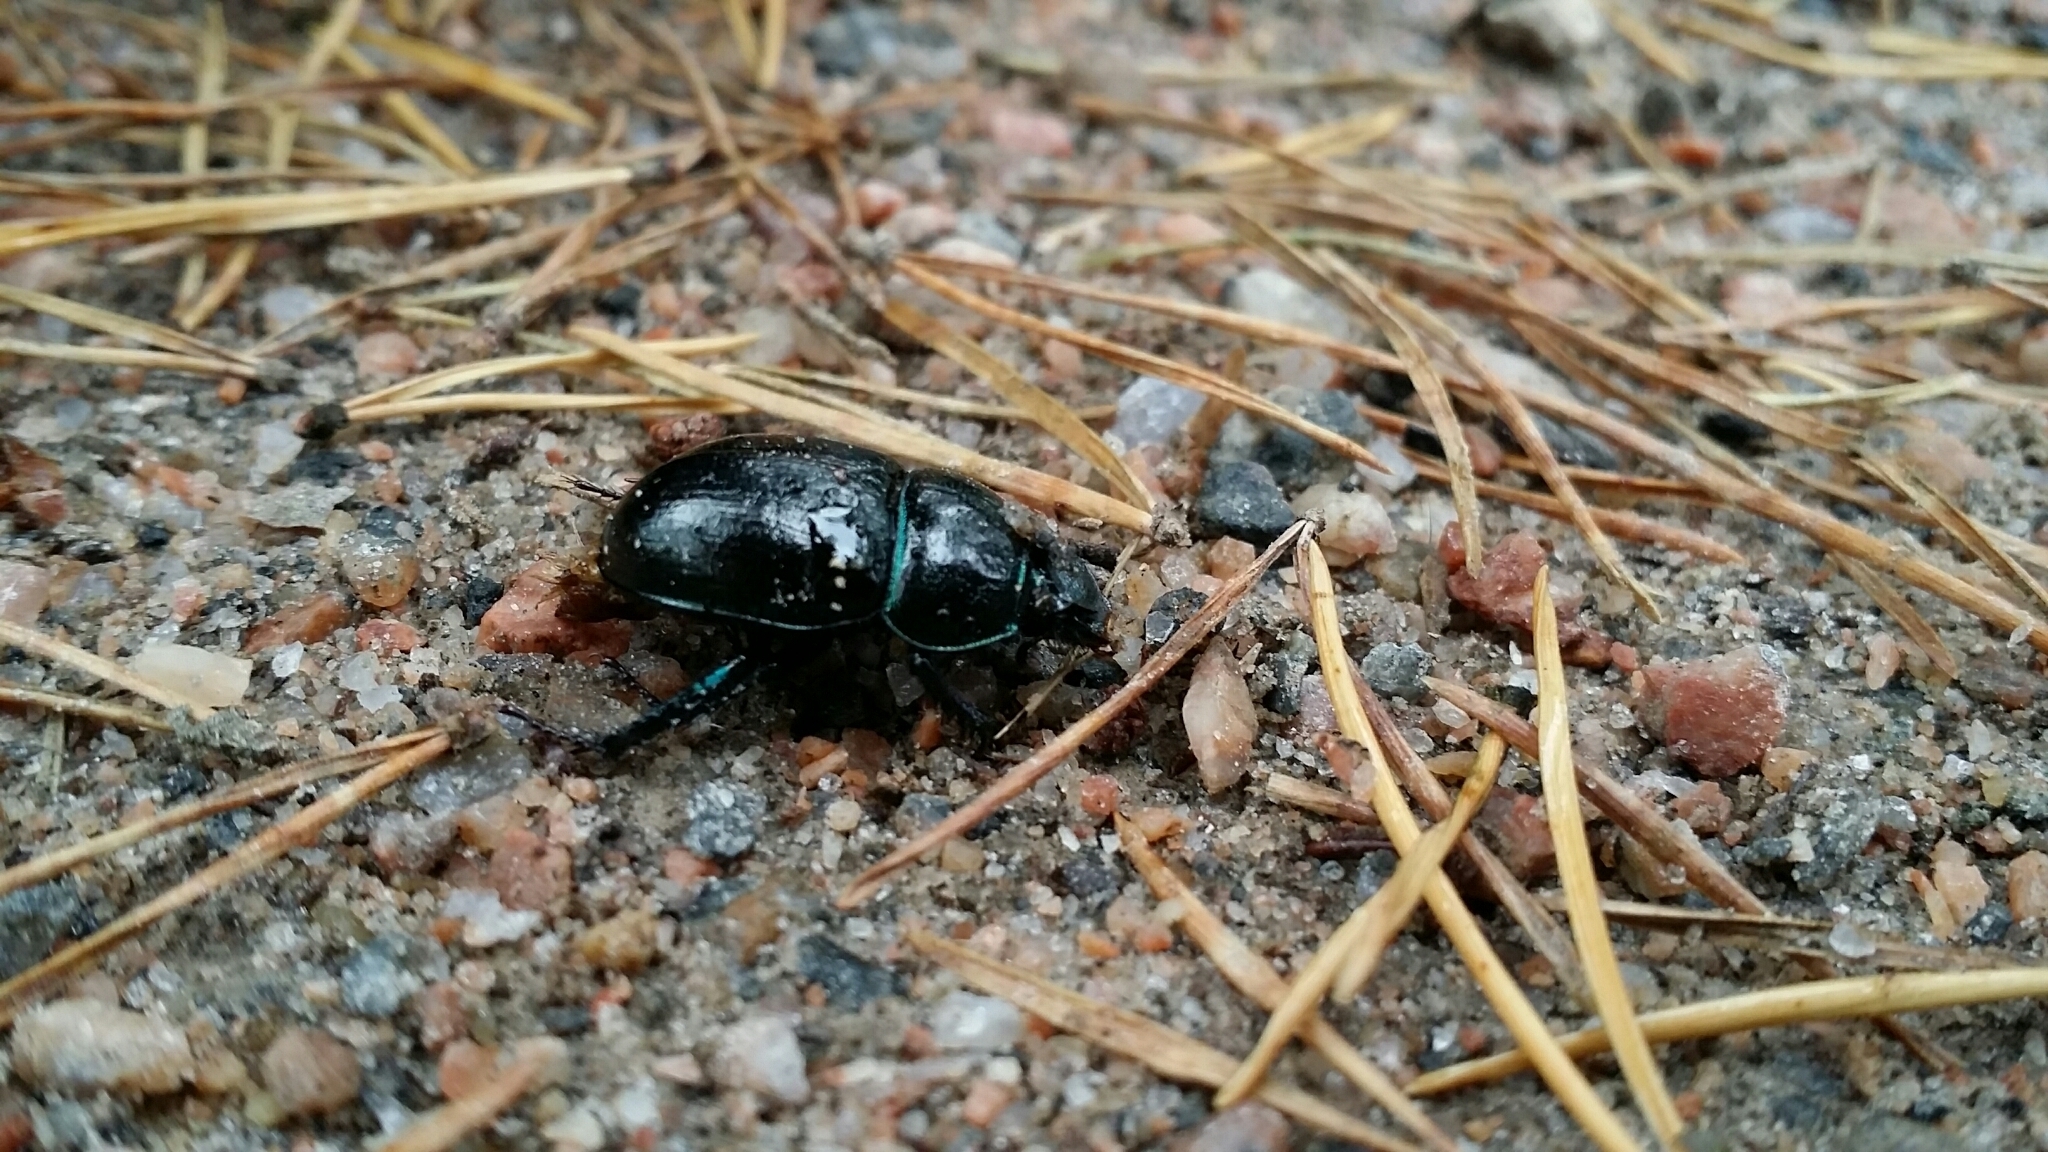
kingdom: Animalia
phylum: Arthropoda
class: Insecta
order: Coleoptera
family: Geotrupidae
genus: Anoplotrupes
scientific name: Anoplotrupes stercorosus
